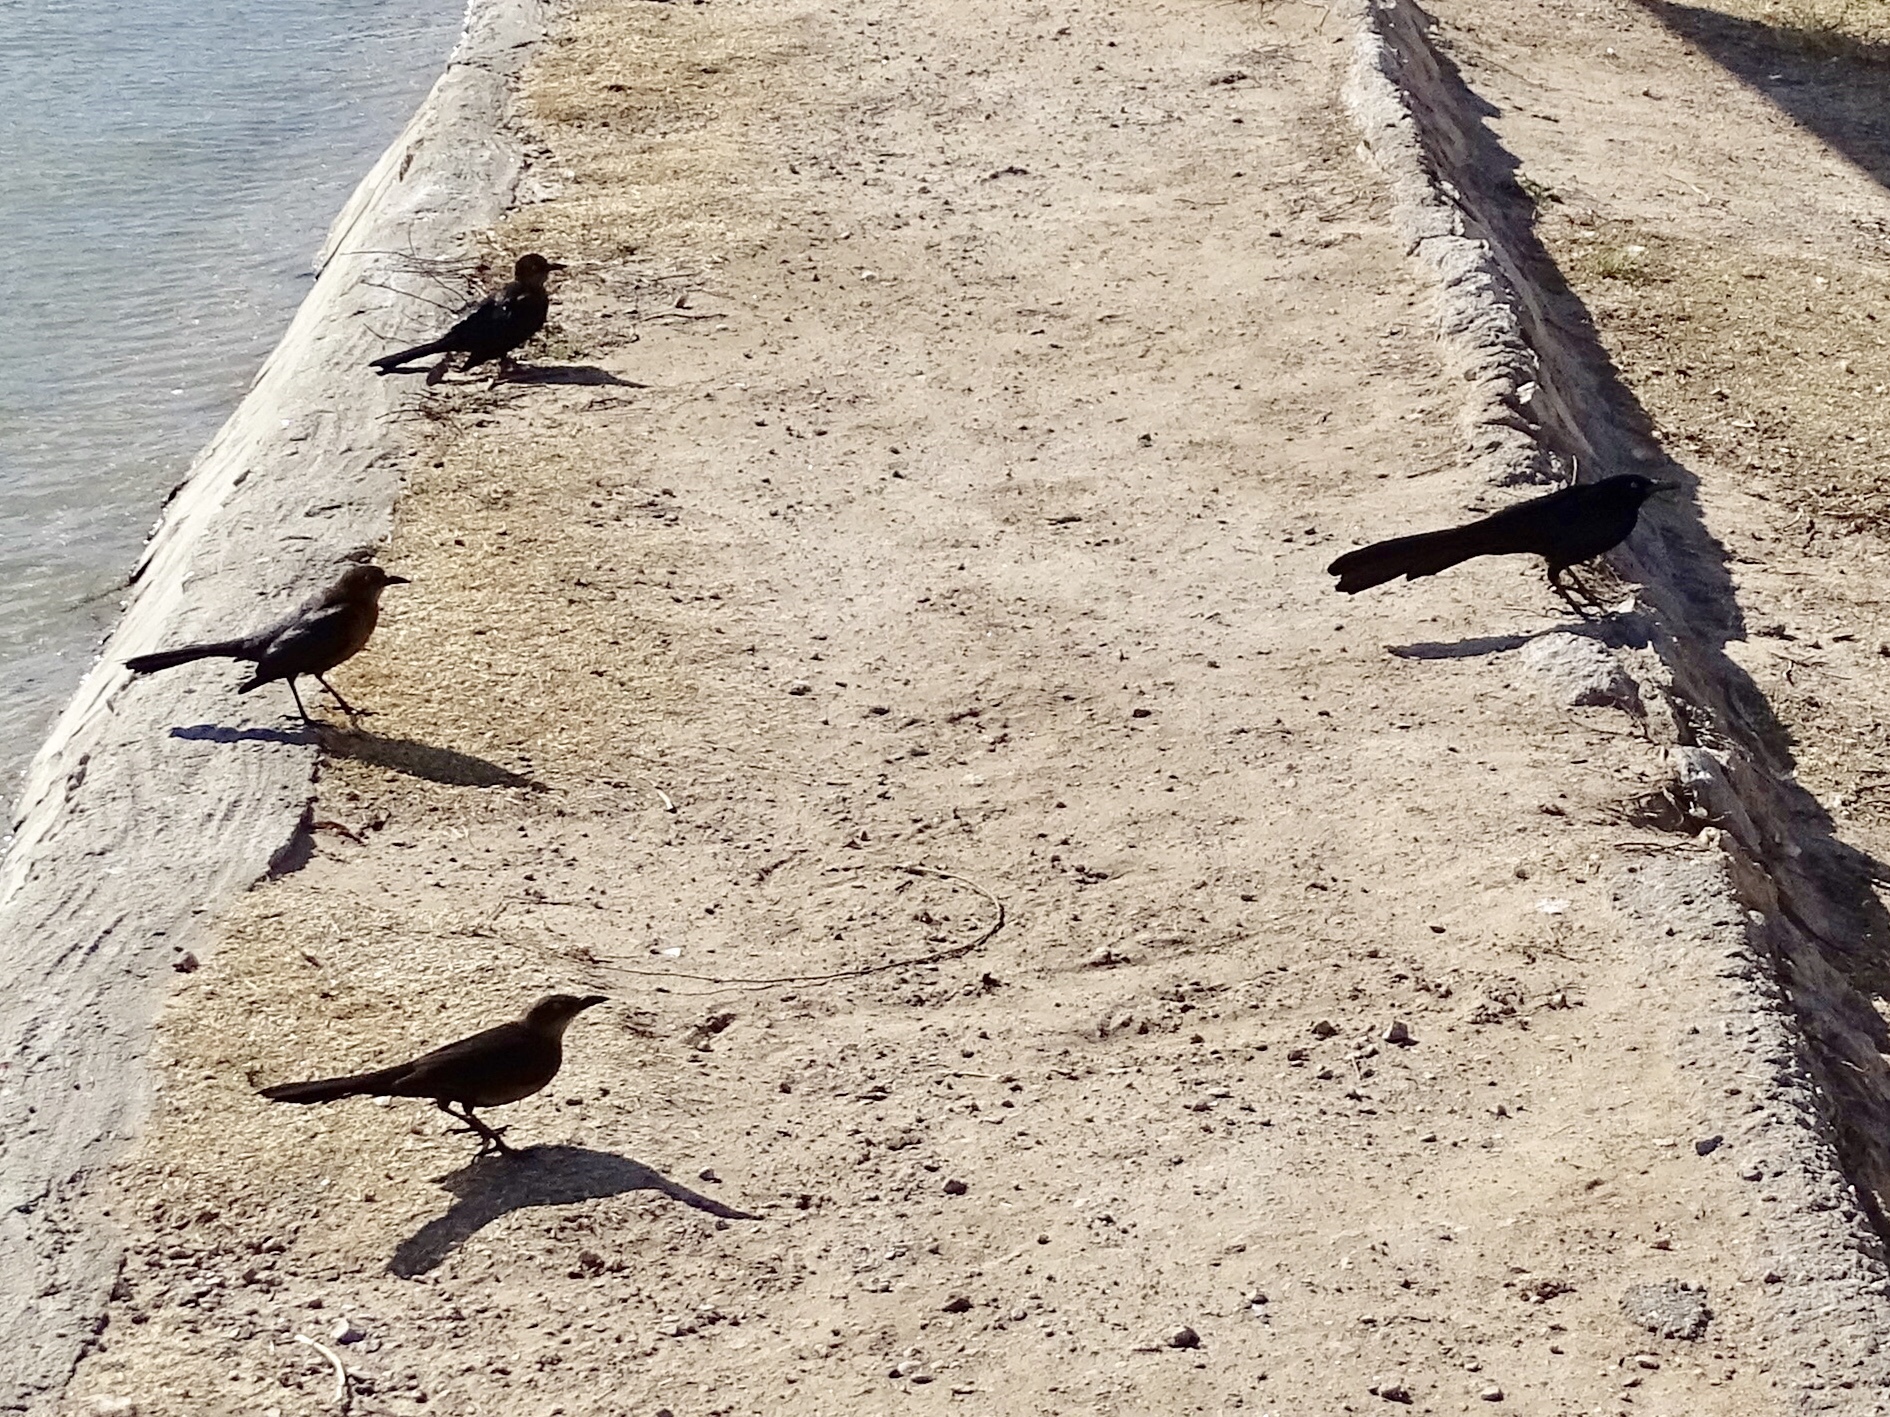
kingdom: Animalia
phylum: Chordata
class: Aves
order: Passeriformes
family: Icteridae
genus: Quiscalus
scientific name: Quiscalus mexicanus
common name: Great-tailed grackle
